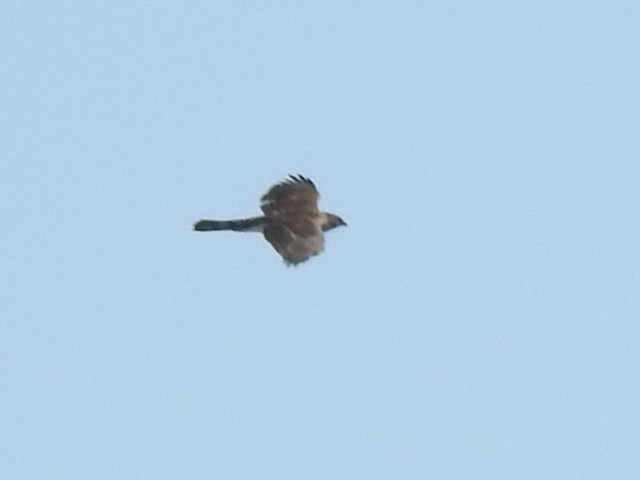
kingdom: Animalia
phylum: Chordata
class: Aves
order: Accipitriformes
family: Accipitridae
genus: Accipiter
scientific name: Accipiter cooperii
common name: Cooper's hawk
